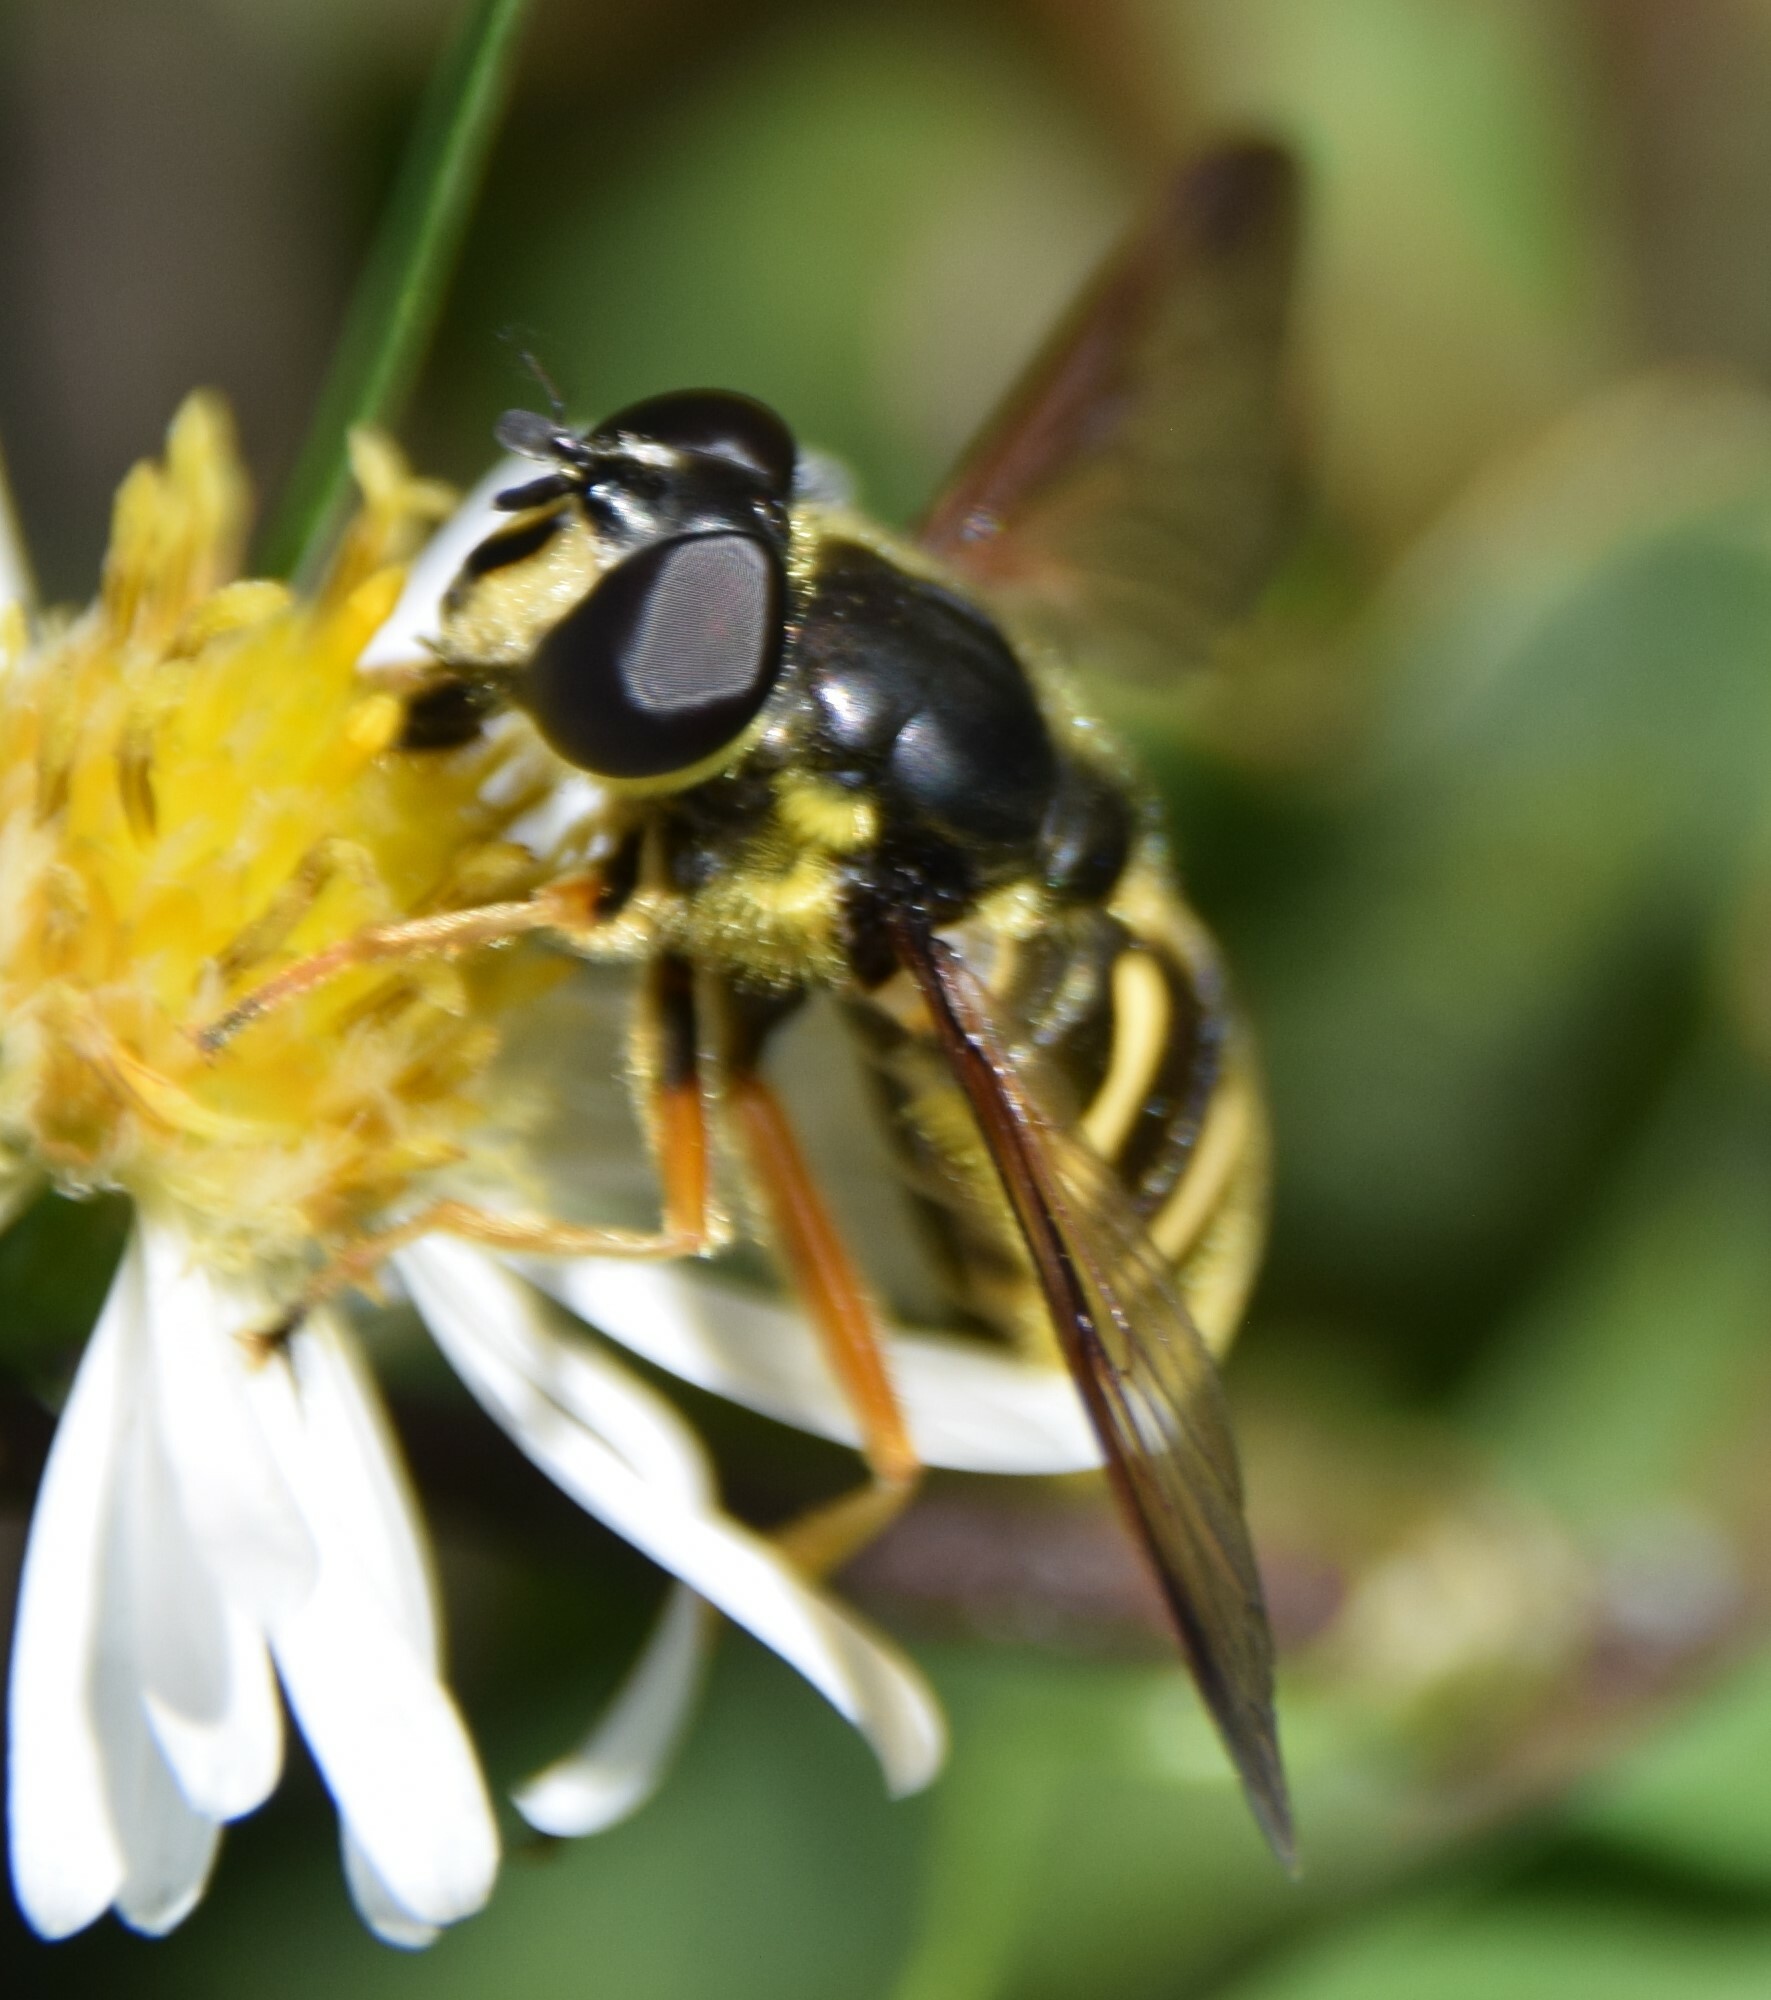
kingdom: Animalia
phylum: Arthropoda
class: Insecta
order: Diptera
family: Syrphidae
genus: Sericomyia
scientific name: Sericomyia chrysotoxoides
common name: Oblique-banded pond fly
